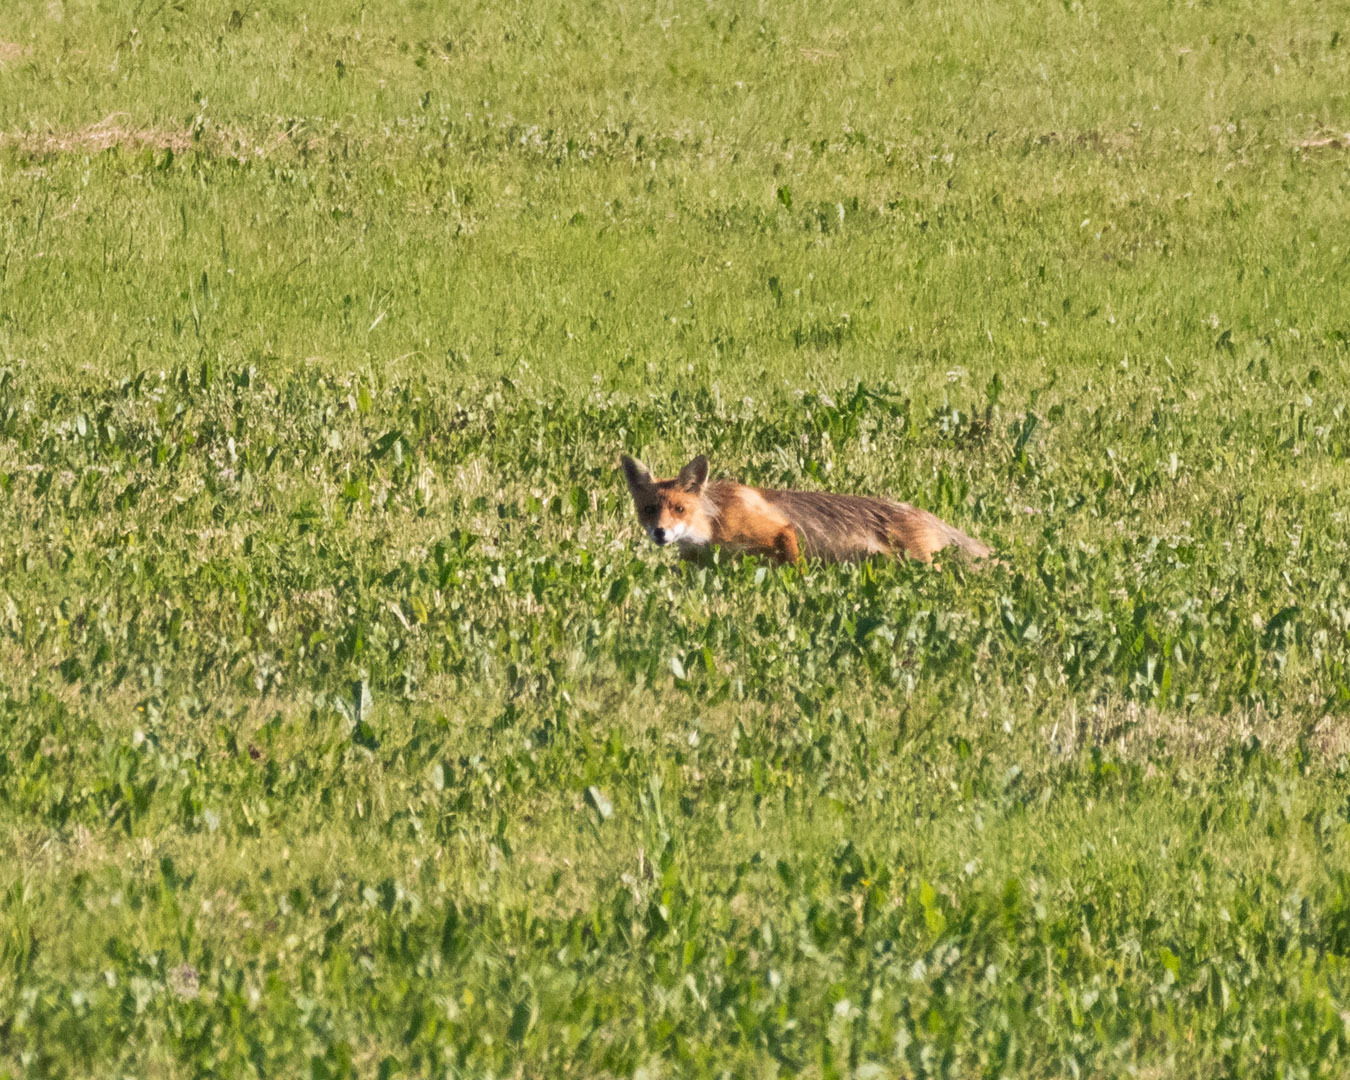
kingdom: Animalia
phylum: Chordata
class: Mammalia
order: Carnivora
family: Canidae
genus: Vulpes
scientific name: Vulpes vulpes
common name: Red fox
